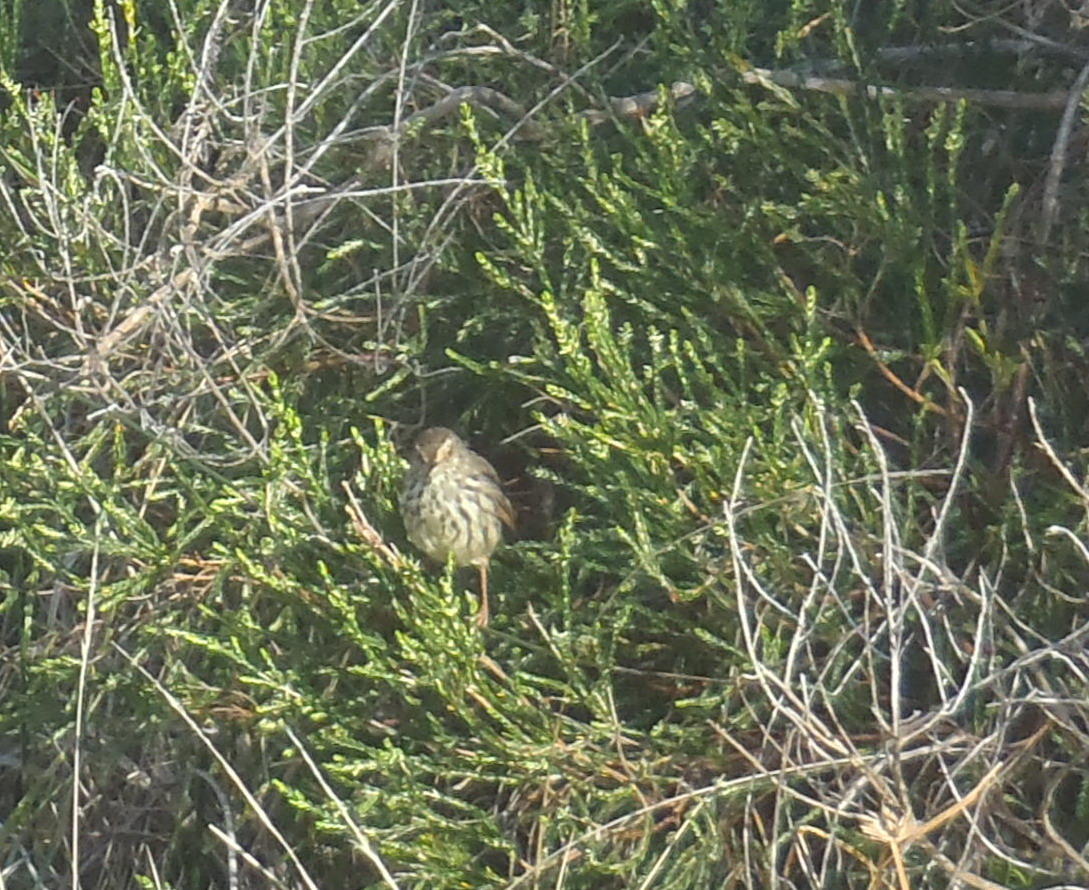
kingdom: Animalia
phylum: Chordata
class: Aves
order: Passeriformes
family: Cisticolidae
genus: Prinia
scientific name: Prinia maculosa
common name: Karoo prinia
